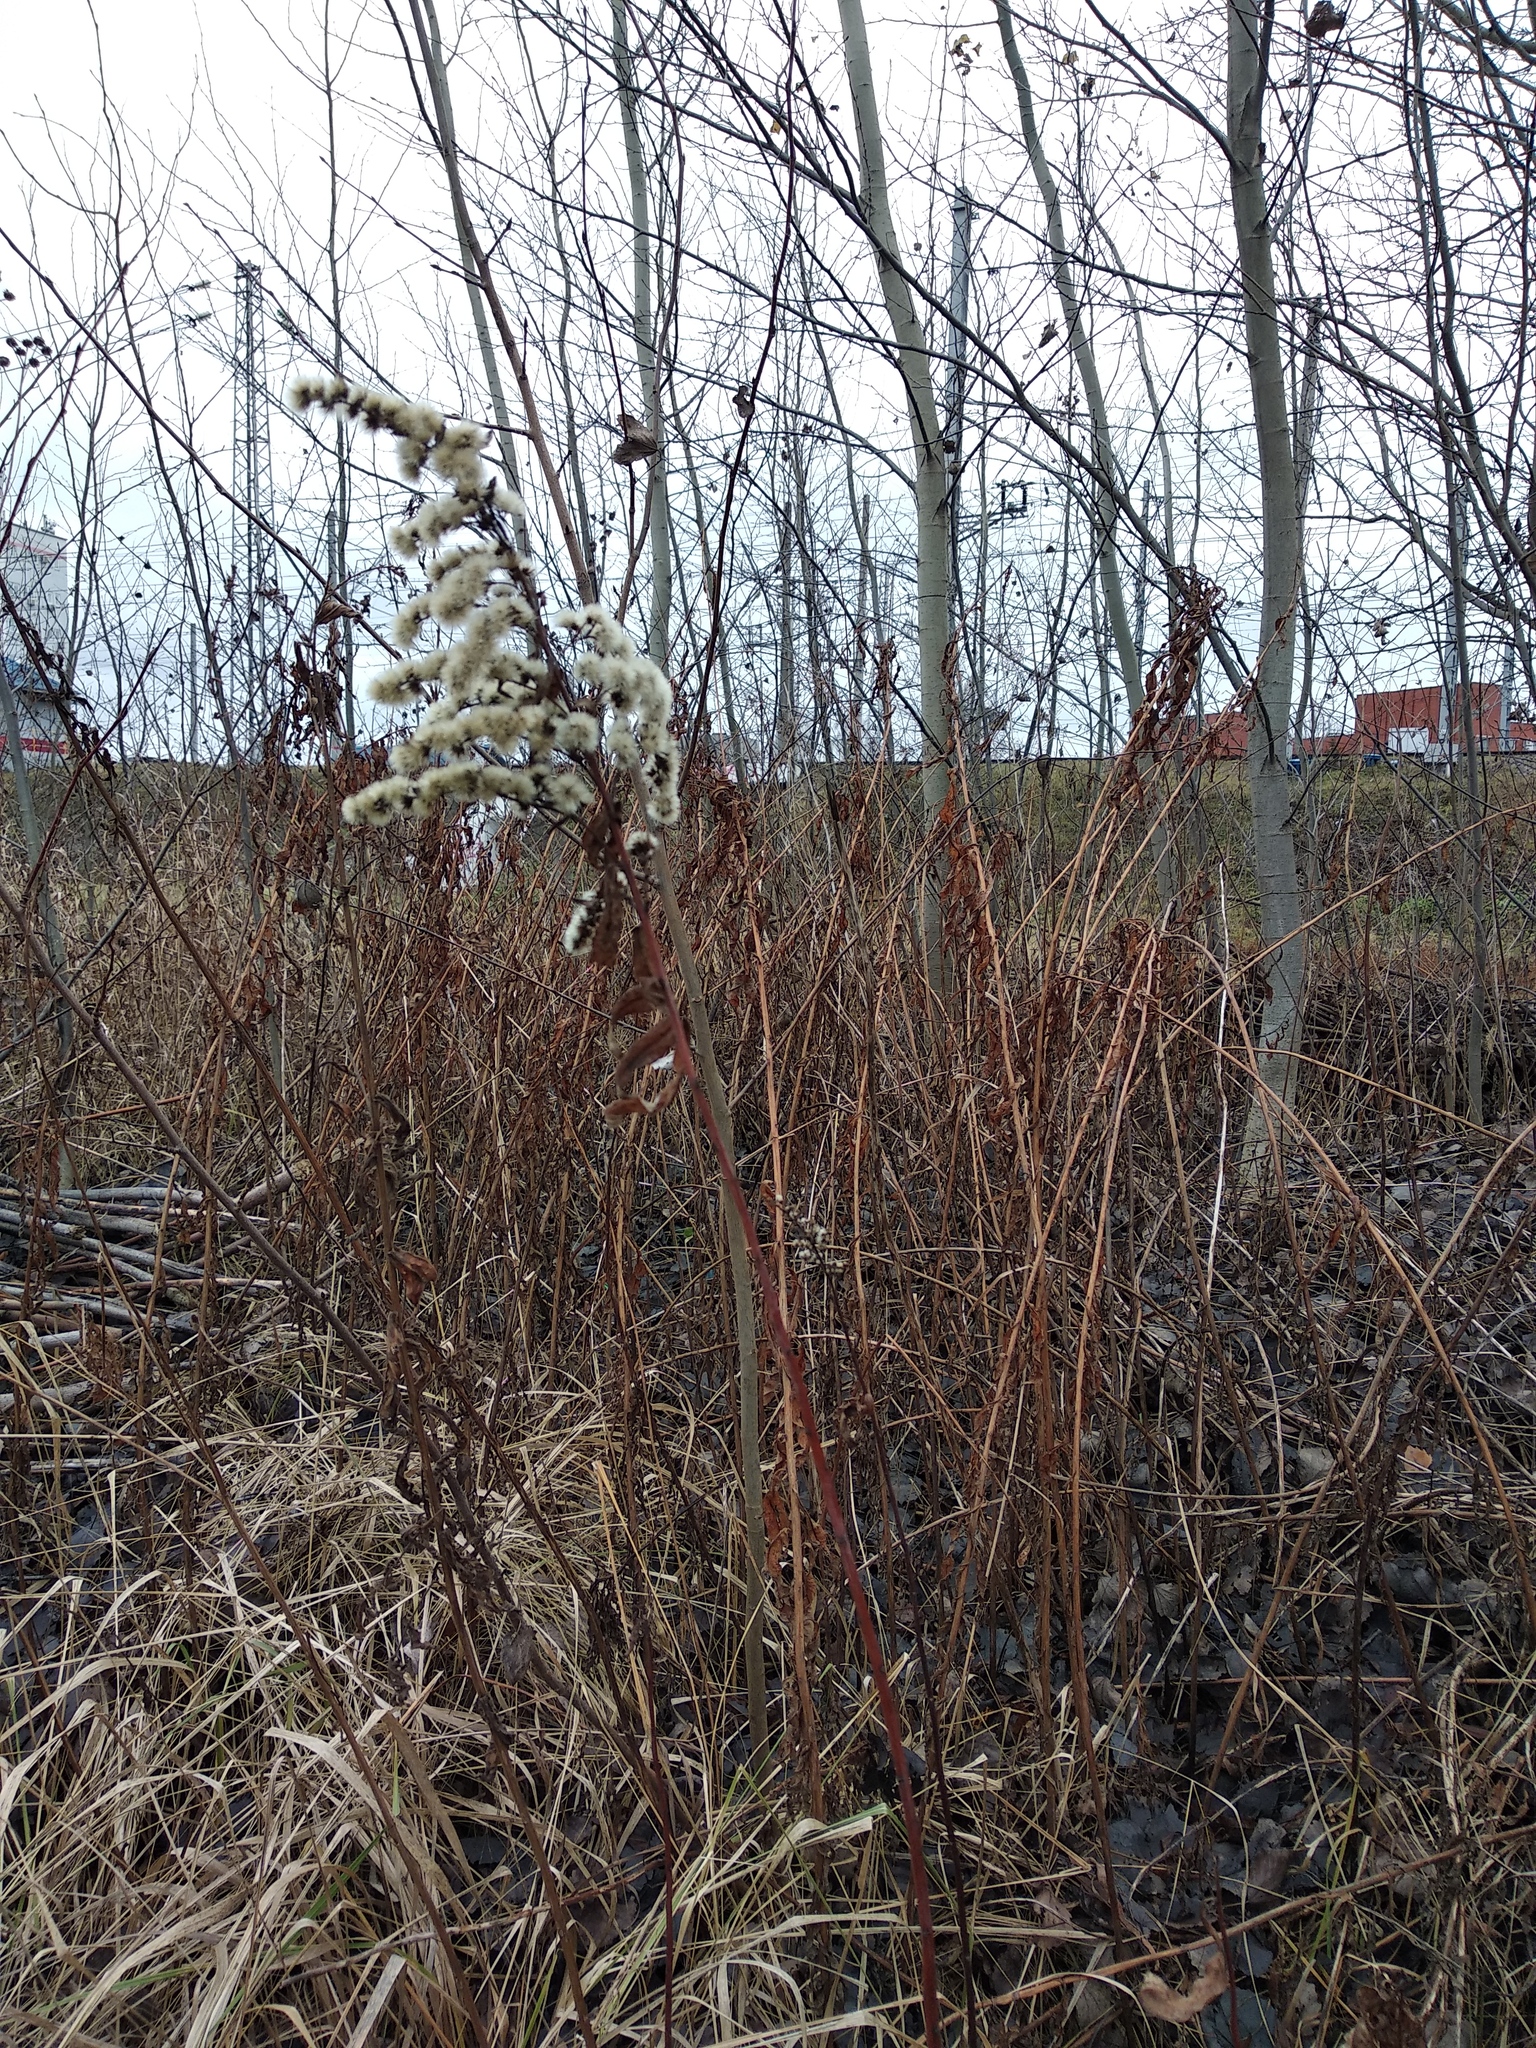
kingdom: Plantae
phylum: Tracheophyta
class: Magnoliopsida
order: Asterales
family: Asteraceae
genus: Solidago
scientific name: Solidago gigantea
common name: Giant goldenrod
